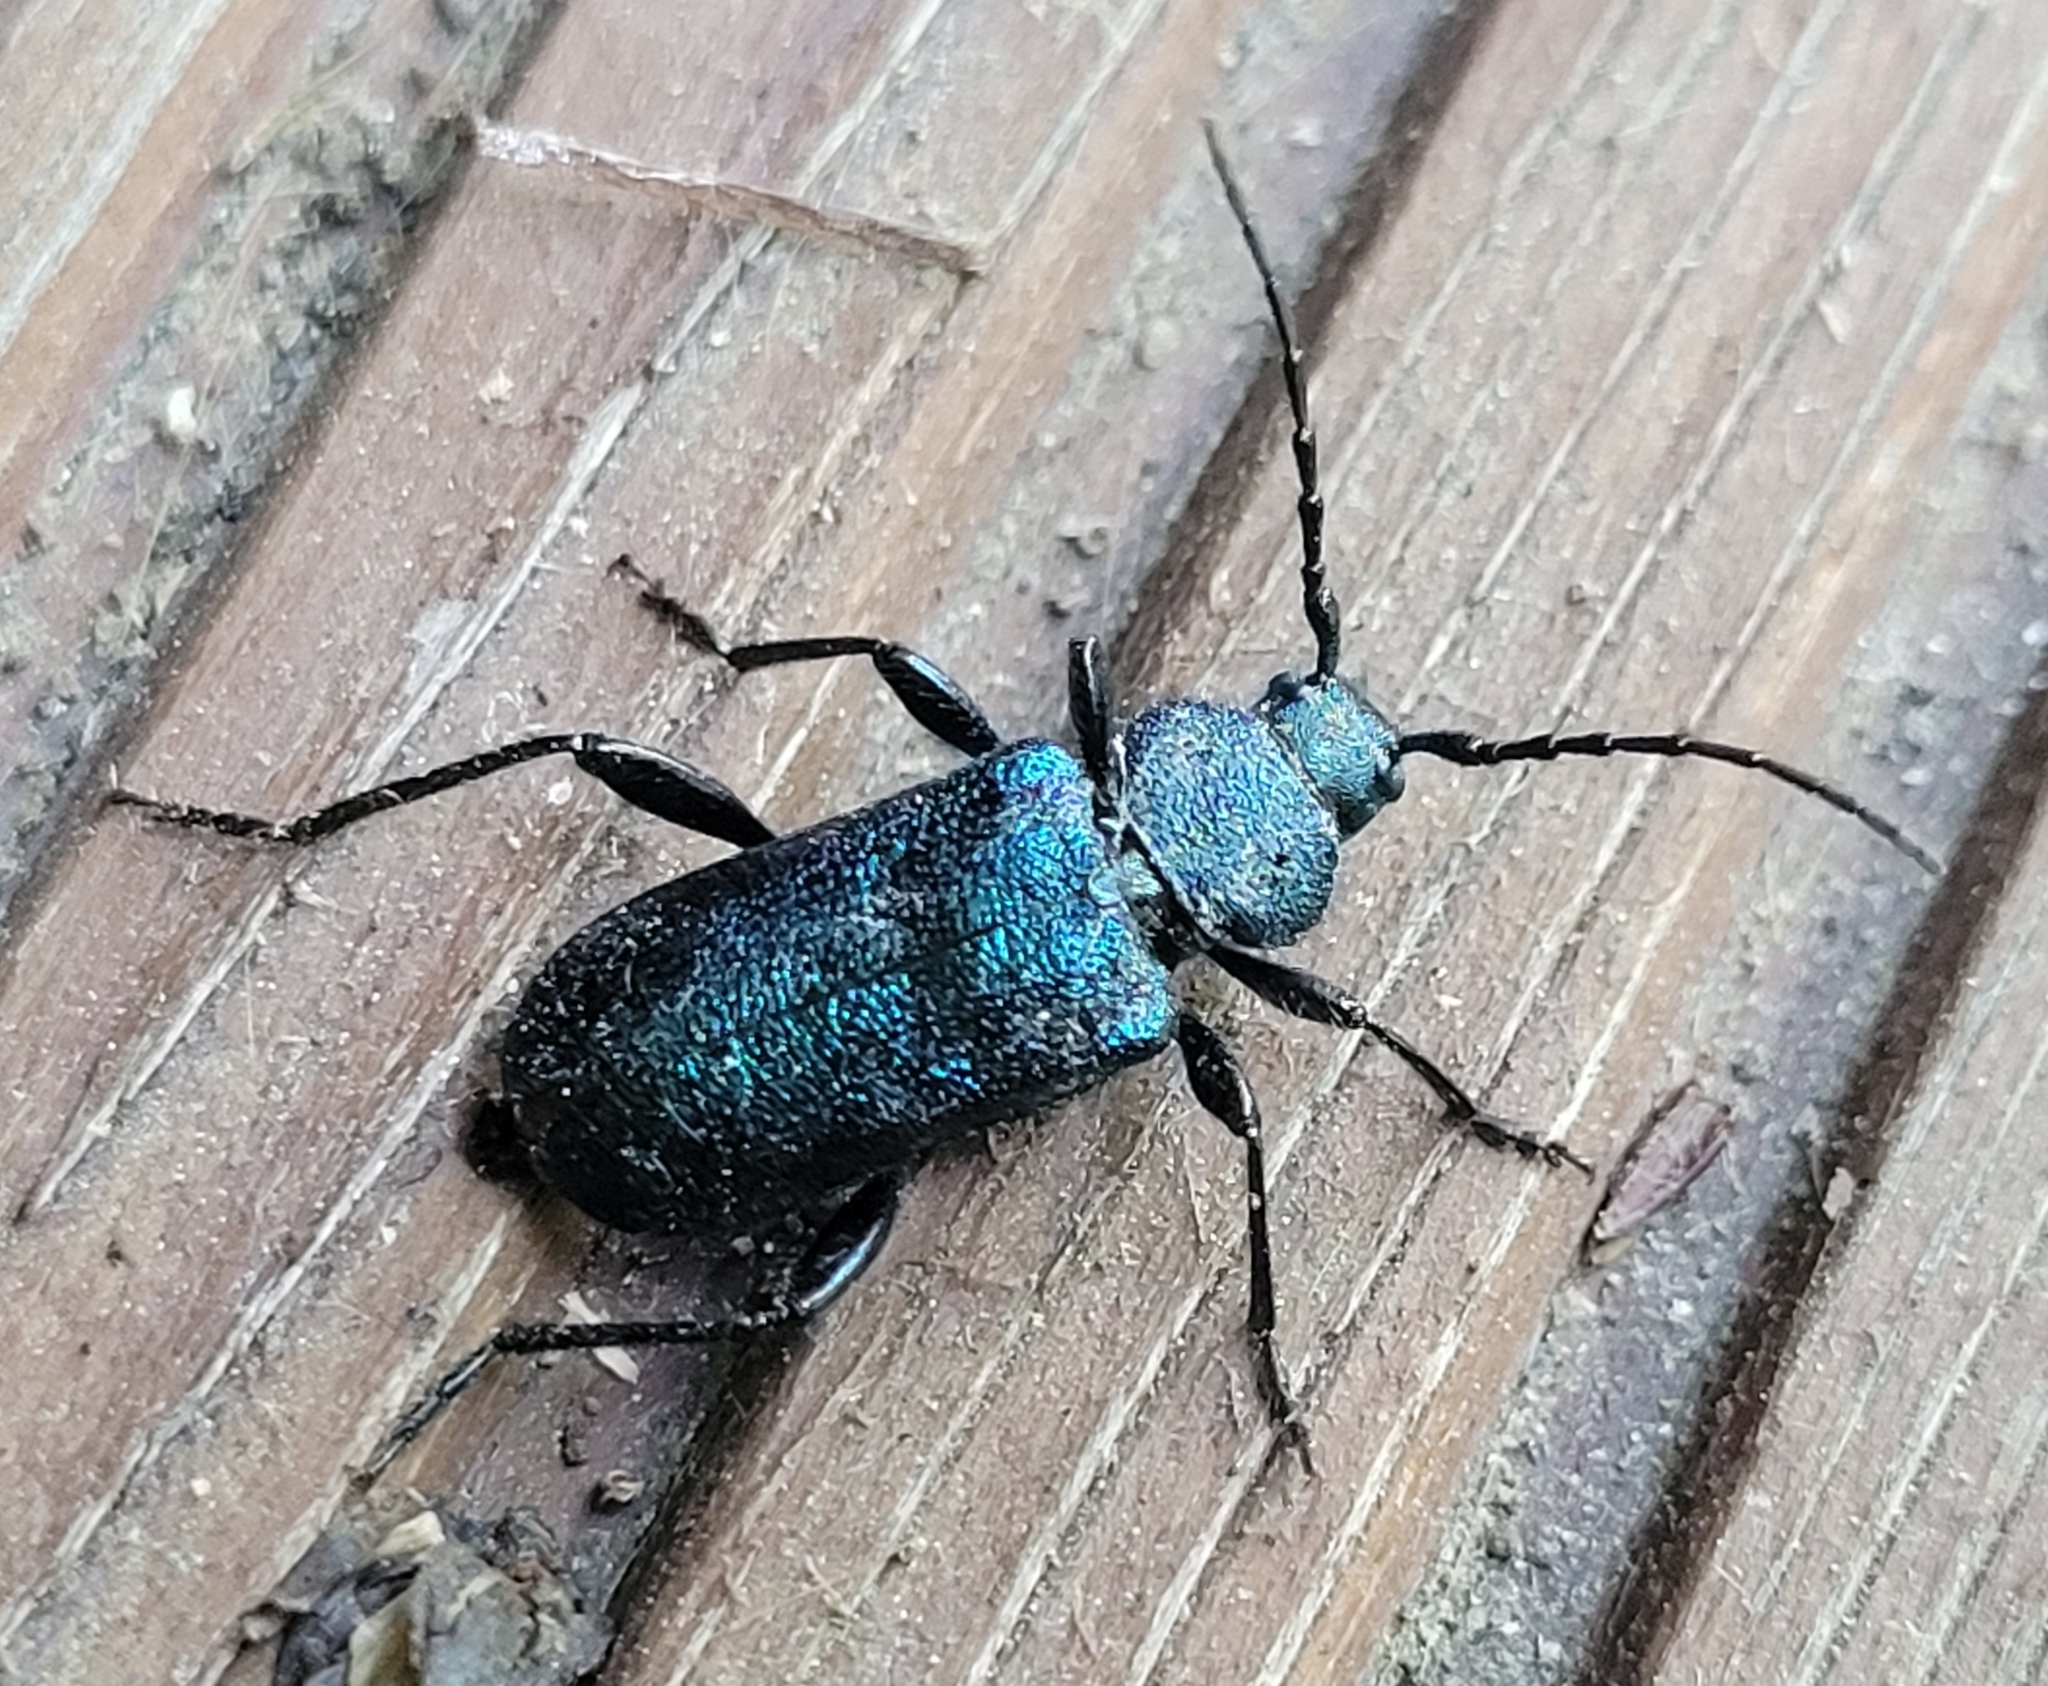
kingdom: Animalia
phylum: Arthropoda
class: Insecta
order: Coleoptera
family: Cerambycidae
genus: Callidium
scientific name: Callidium violaceum
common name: Violet tanbark beetle
